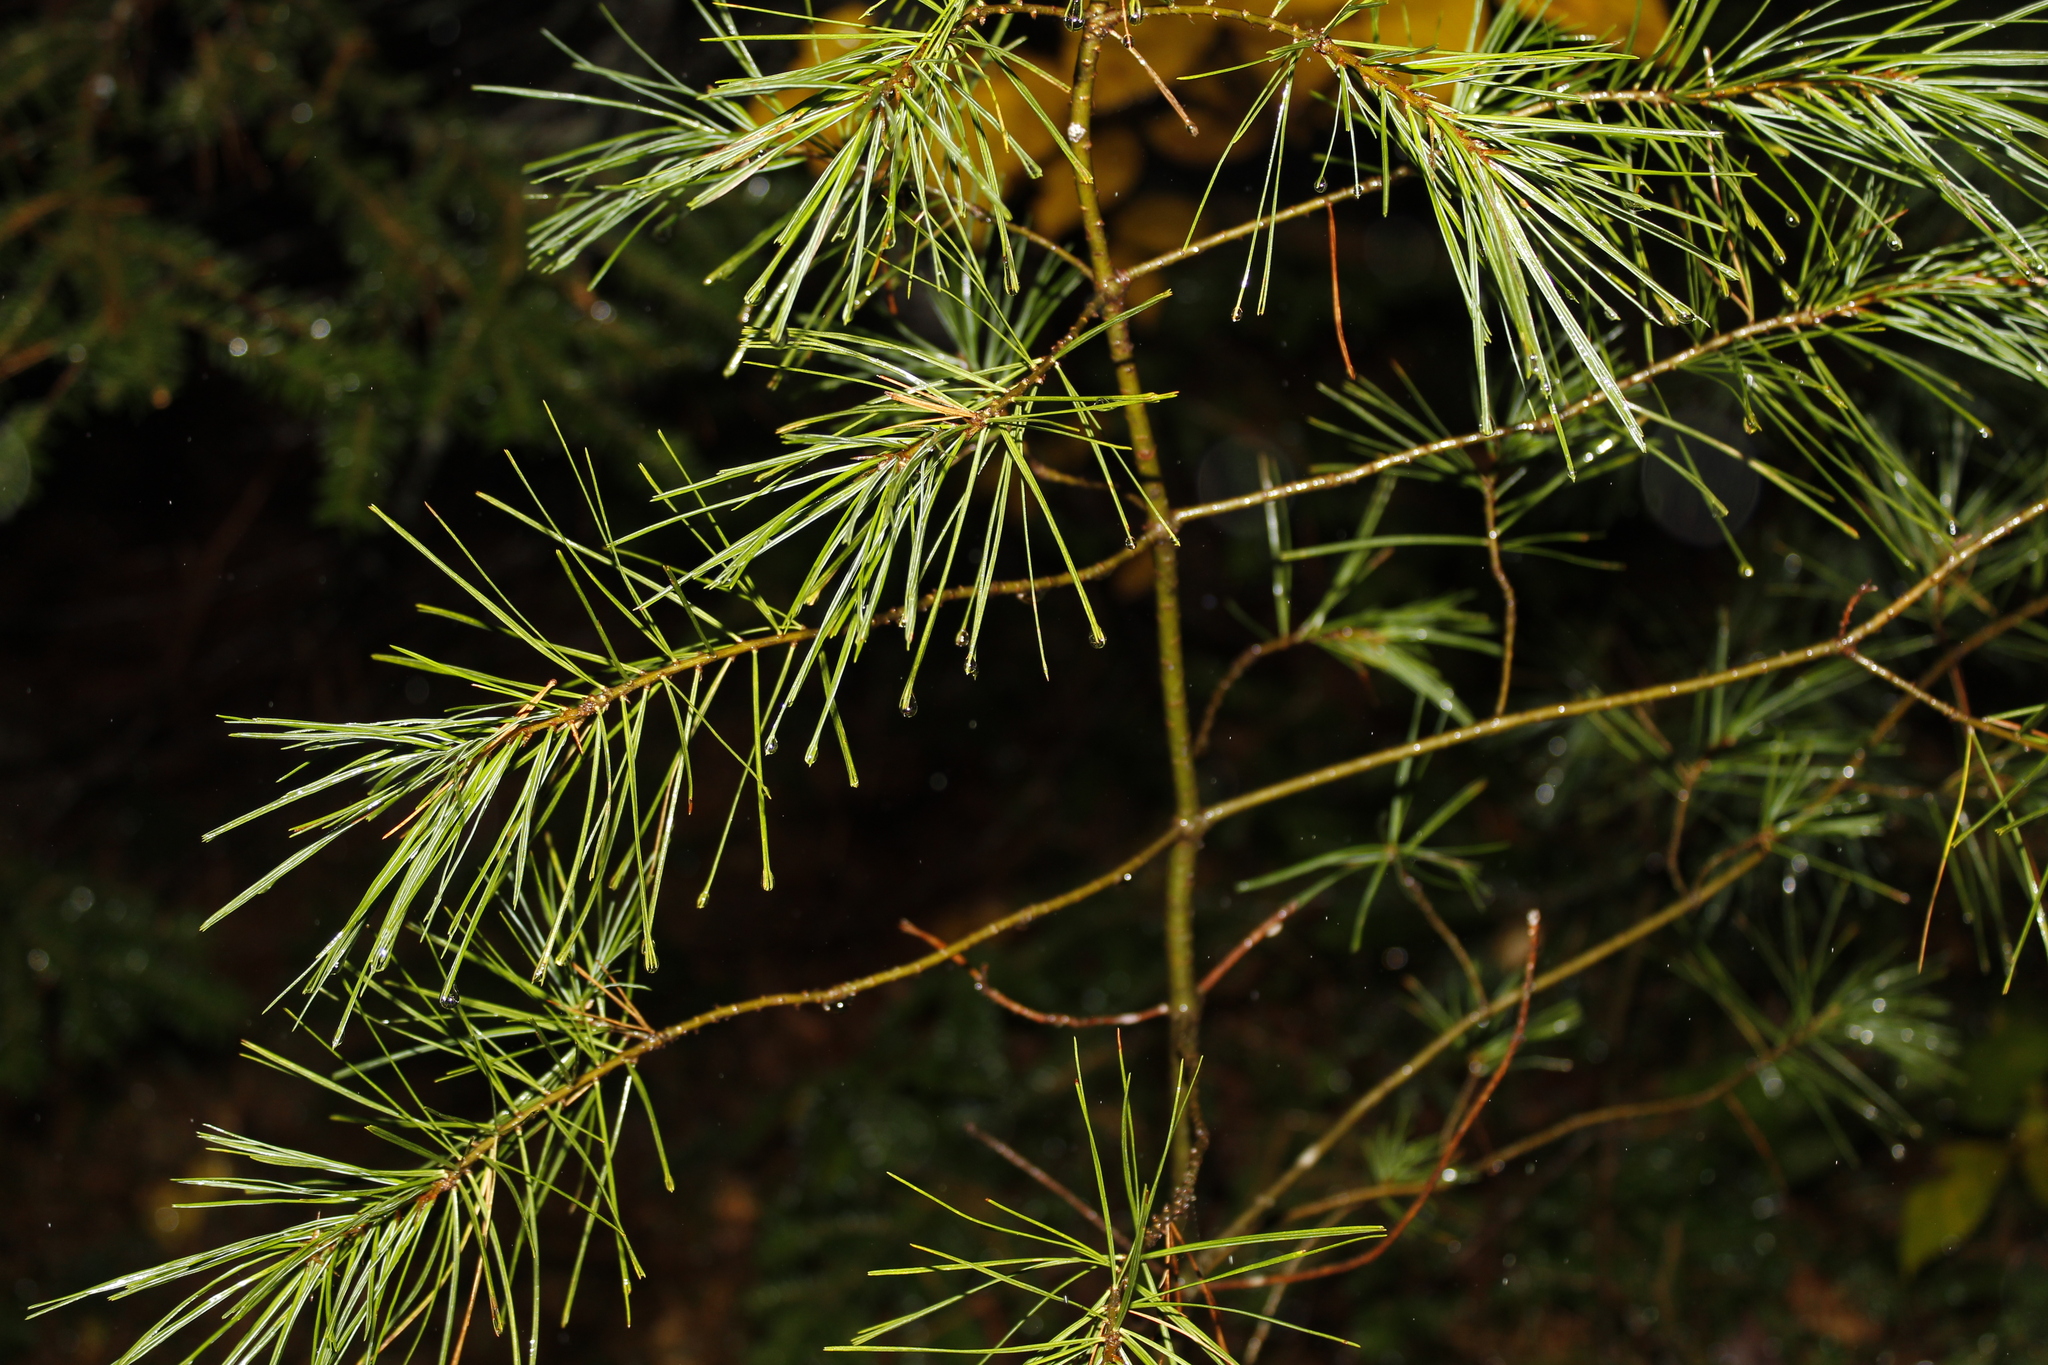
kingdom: Plantae
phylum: Tracheophyta
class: Pinopsida
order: Pinales
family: Pinaceae
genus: Pinus
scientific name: Pinus strobus
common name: Weymouth pine
